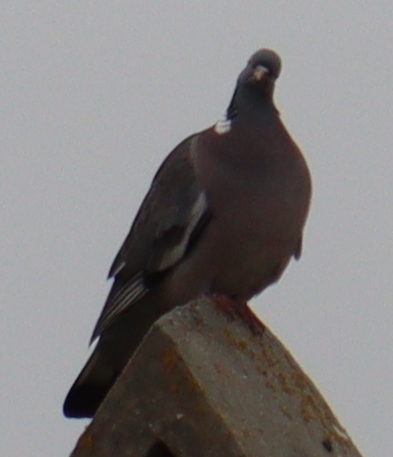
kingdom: Animalia
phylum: Chordata
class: Aves
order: Columbiformes
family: Columbidae
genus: Columba
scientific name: Columba palumbus
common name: Common wood pigeon
